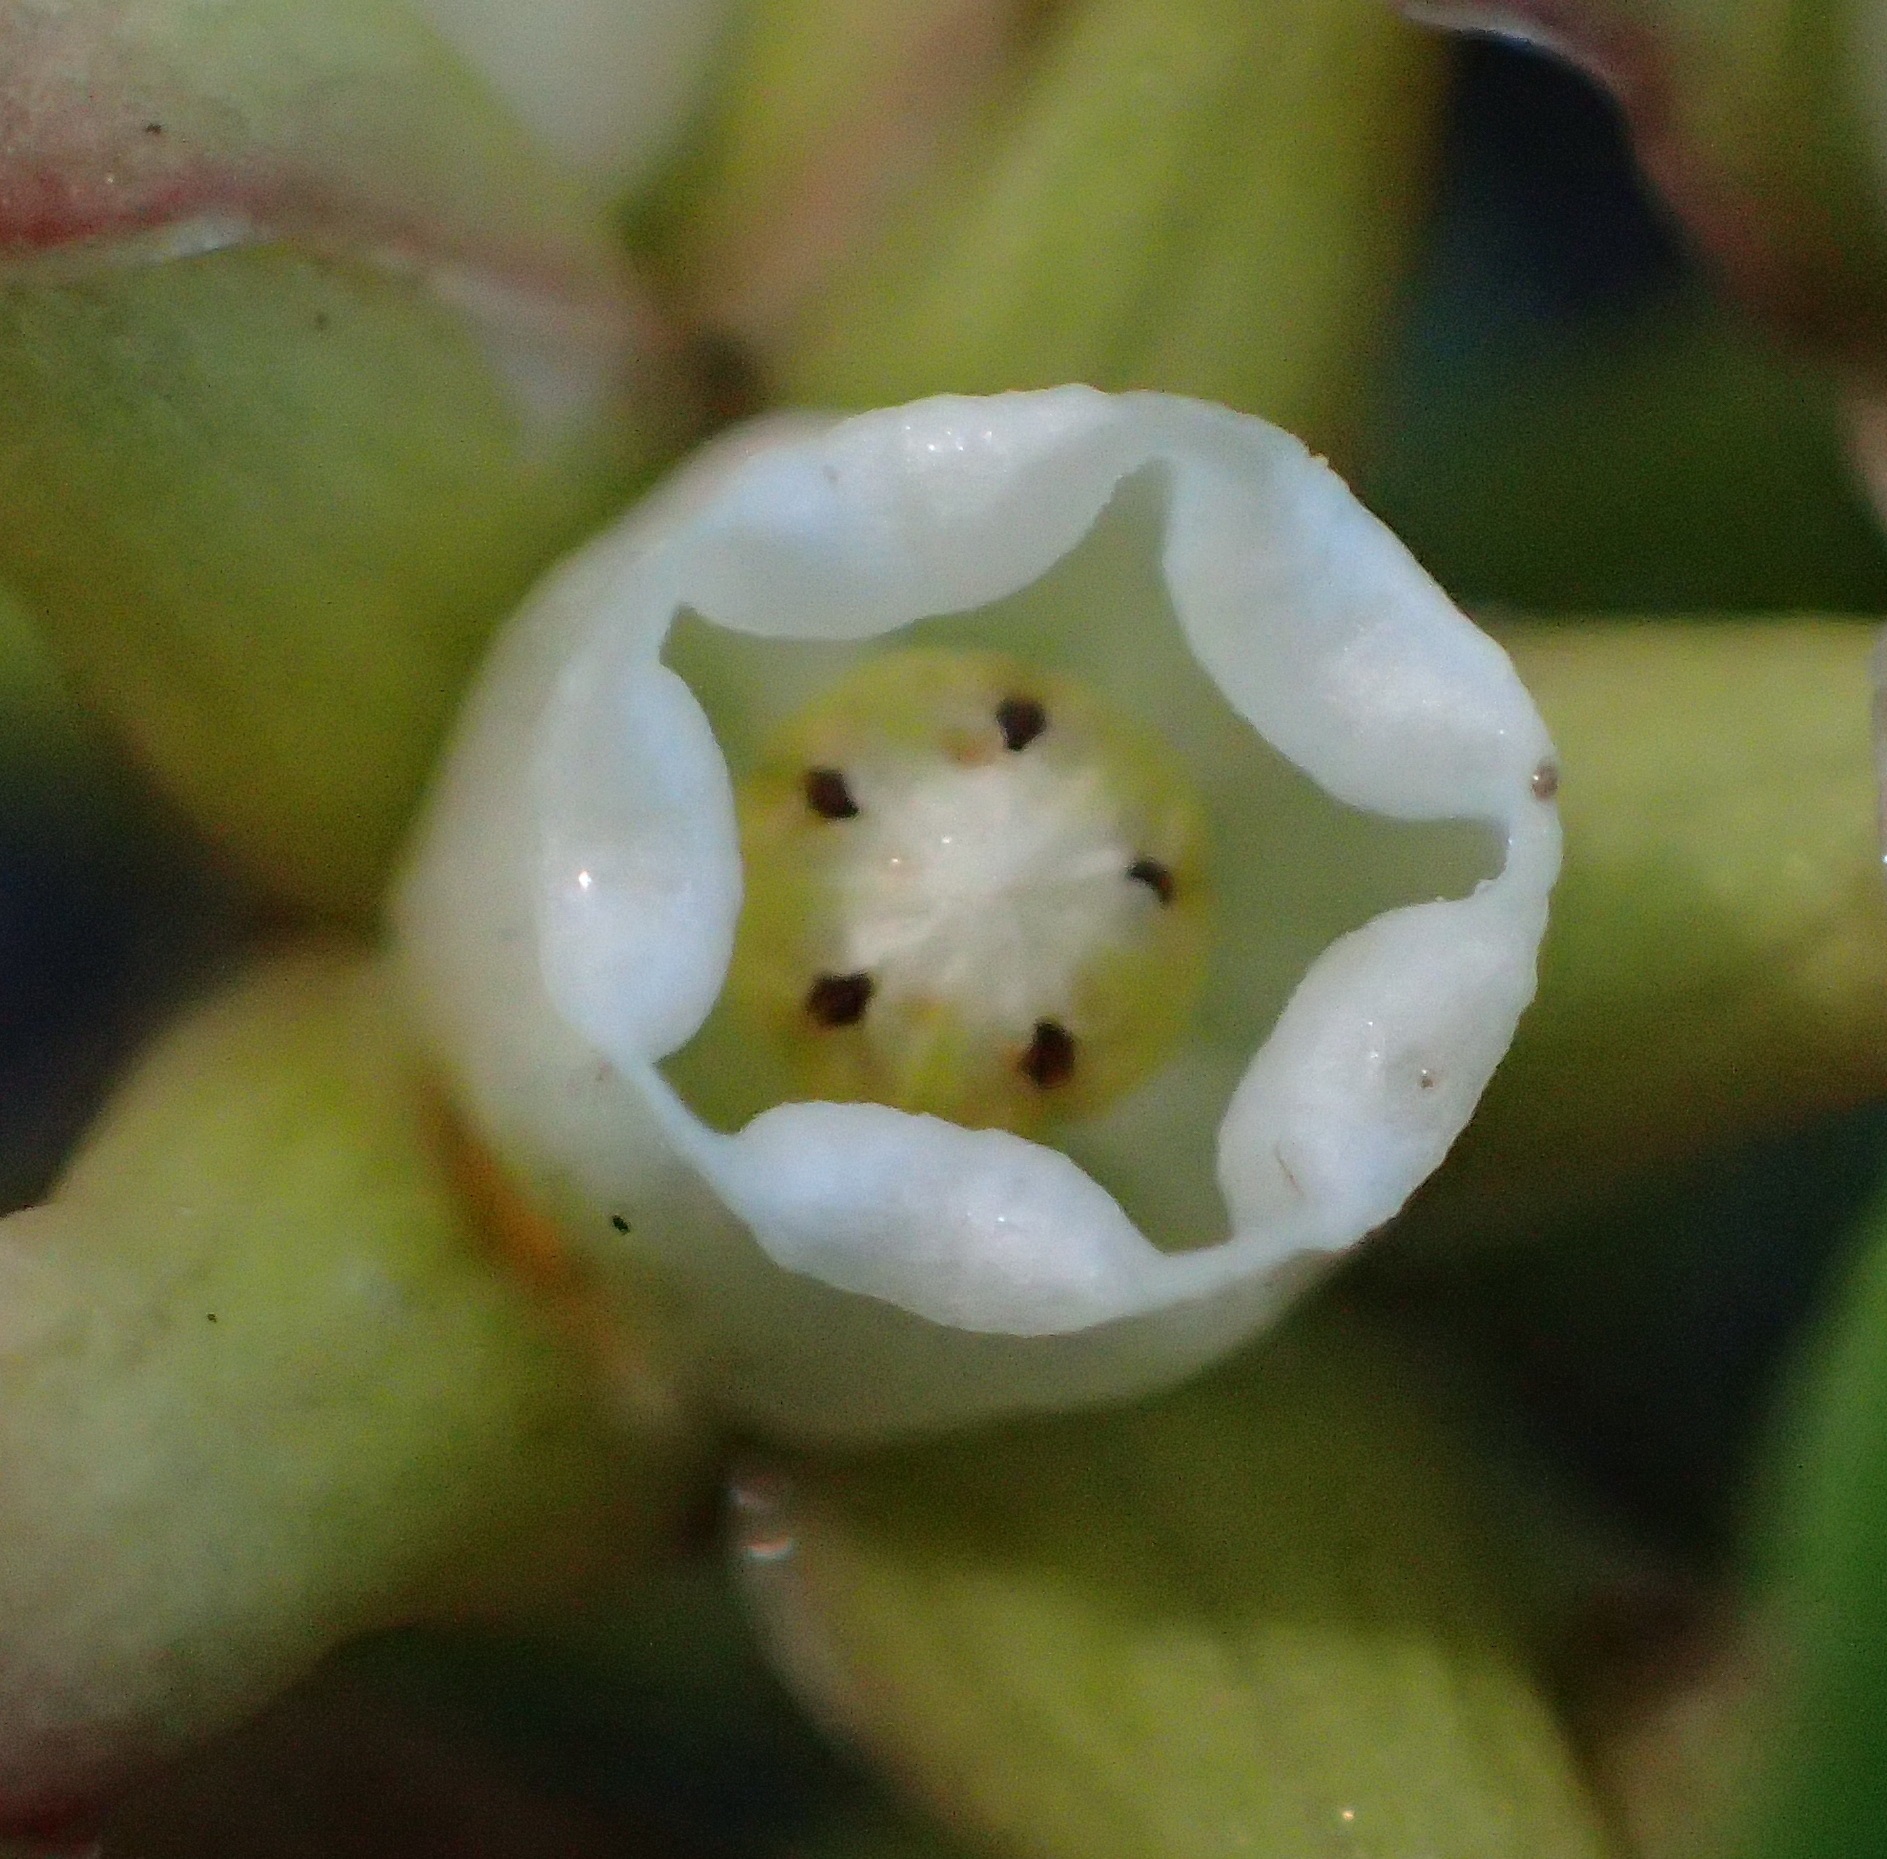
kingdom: Plantae
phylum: Tracheophyta
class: Magnoliopsida
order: Gentianales
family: Apocynaceae
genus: Cynanchum
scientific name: Cynanchum natalitium
